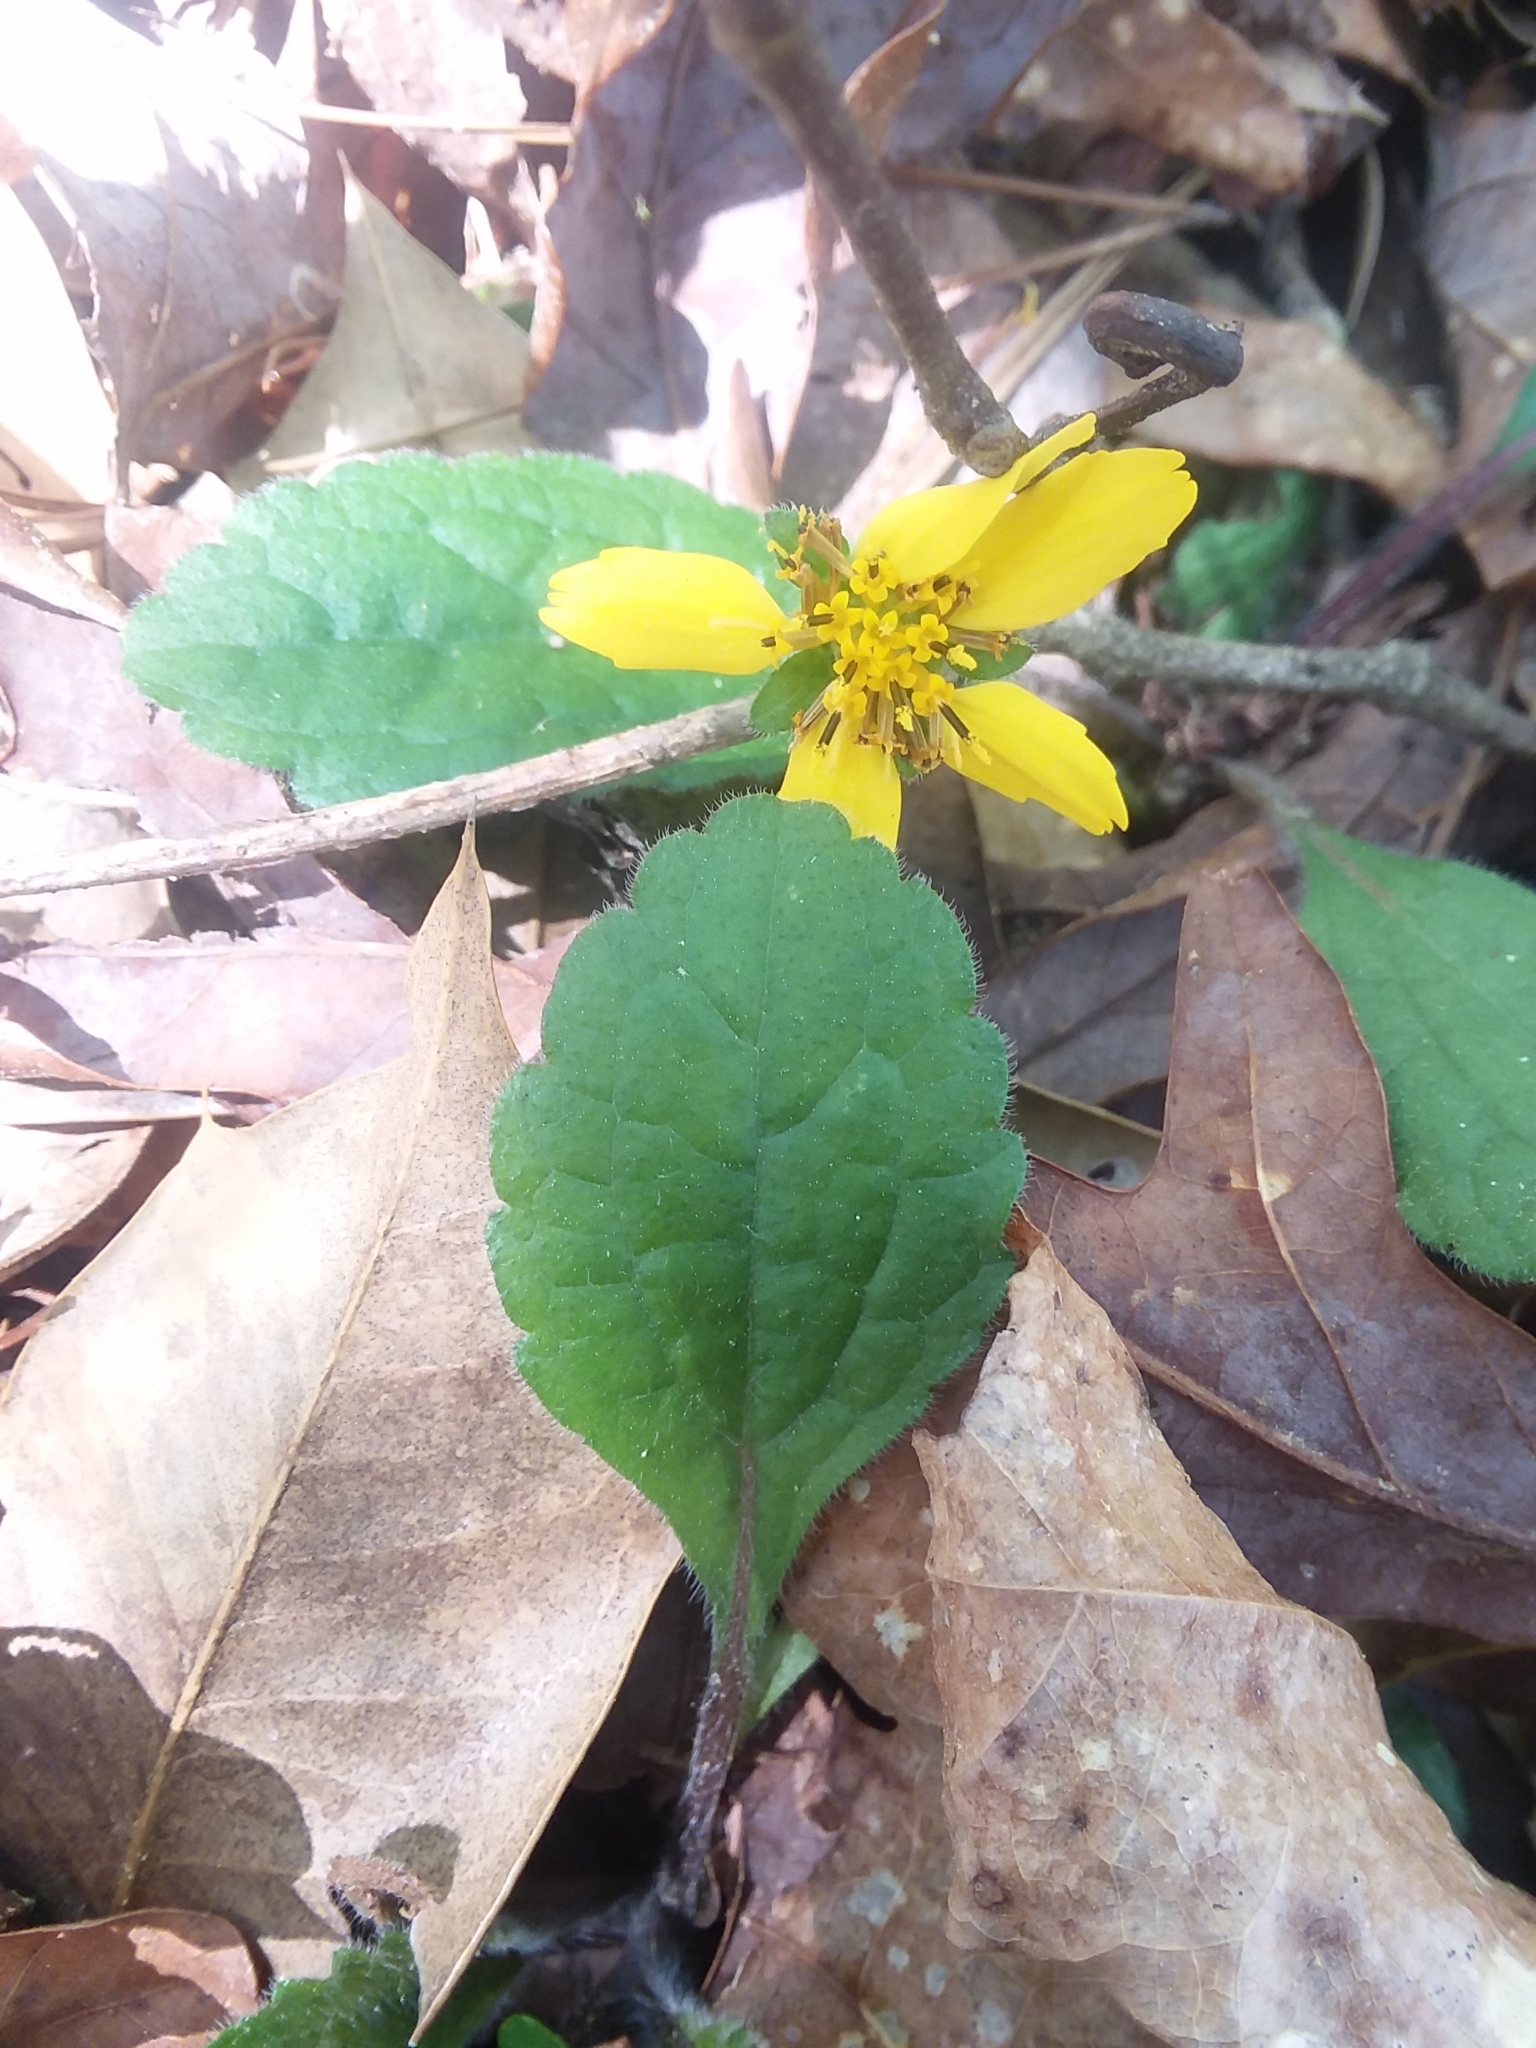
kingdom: Plantae
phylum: Tracheophyta
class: Magnoliopsida
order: Asterales
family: Asteraceae
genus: Chrysogonum
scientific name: Chrysogonum australe
